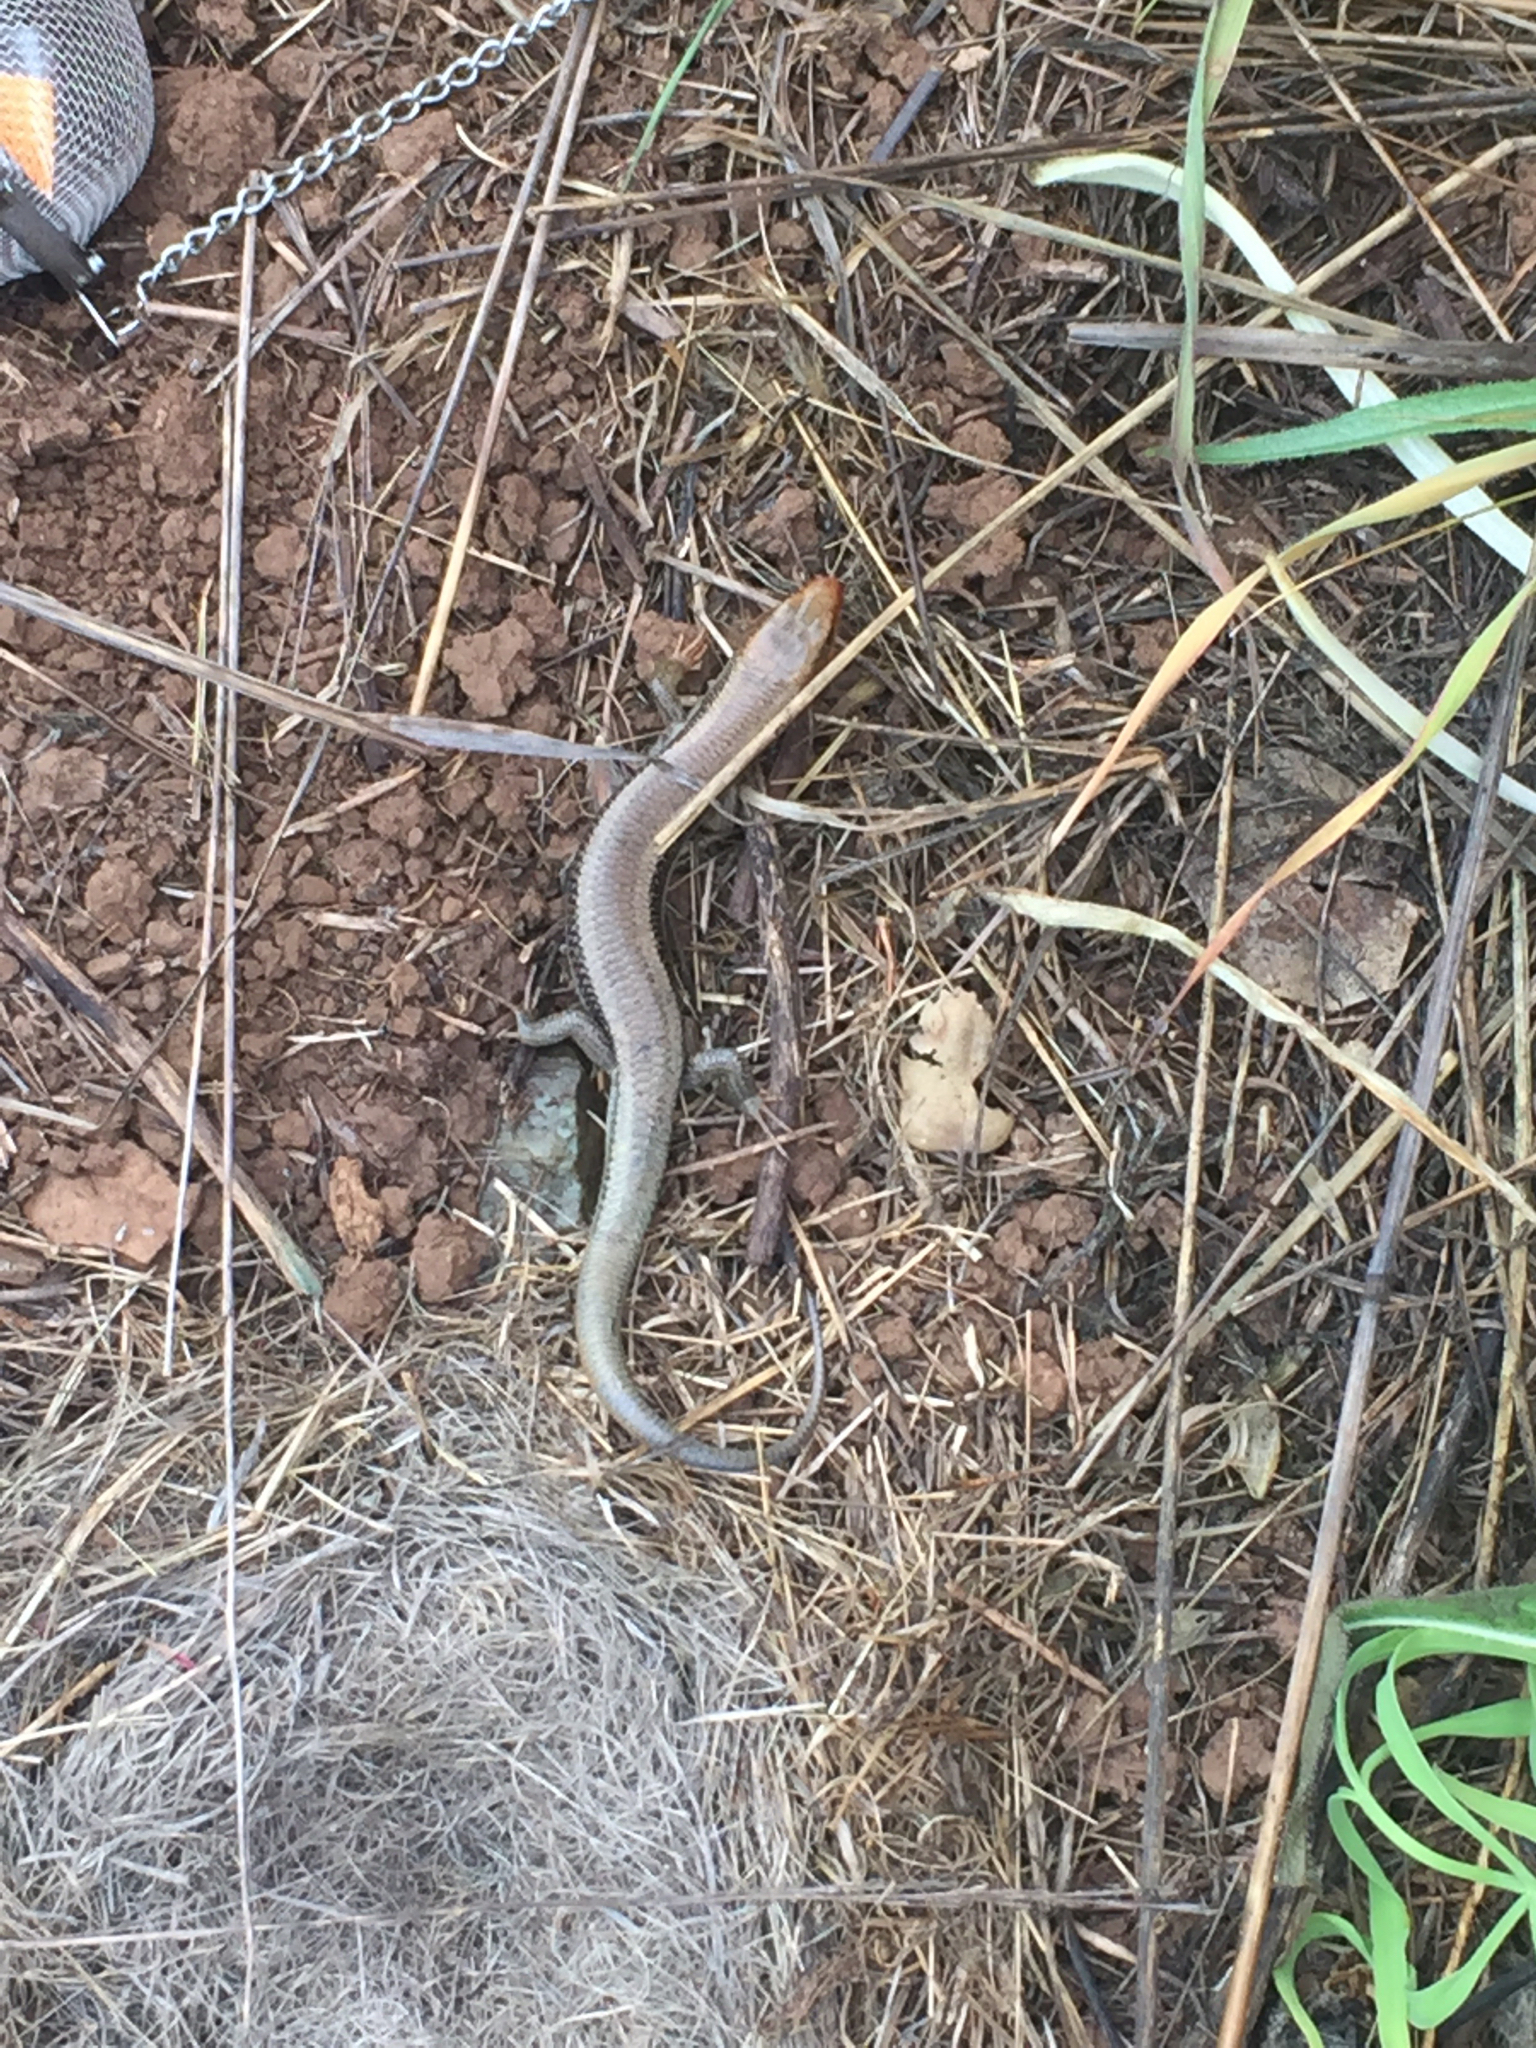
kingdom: Animalia
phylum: Chordata
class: Squamata
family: Scincidae
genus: Plestiodon
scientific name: Plestiodon skiltonianus
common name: Coronado island skink [interparietalis]
